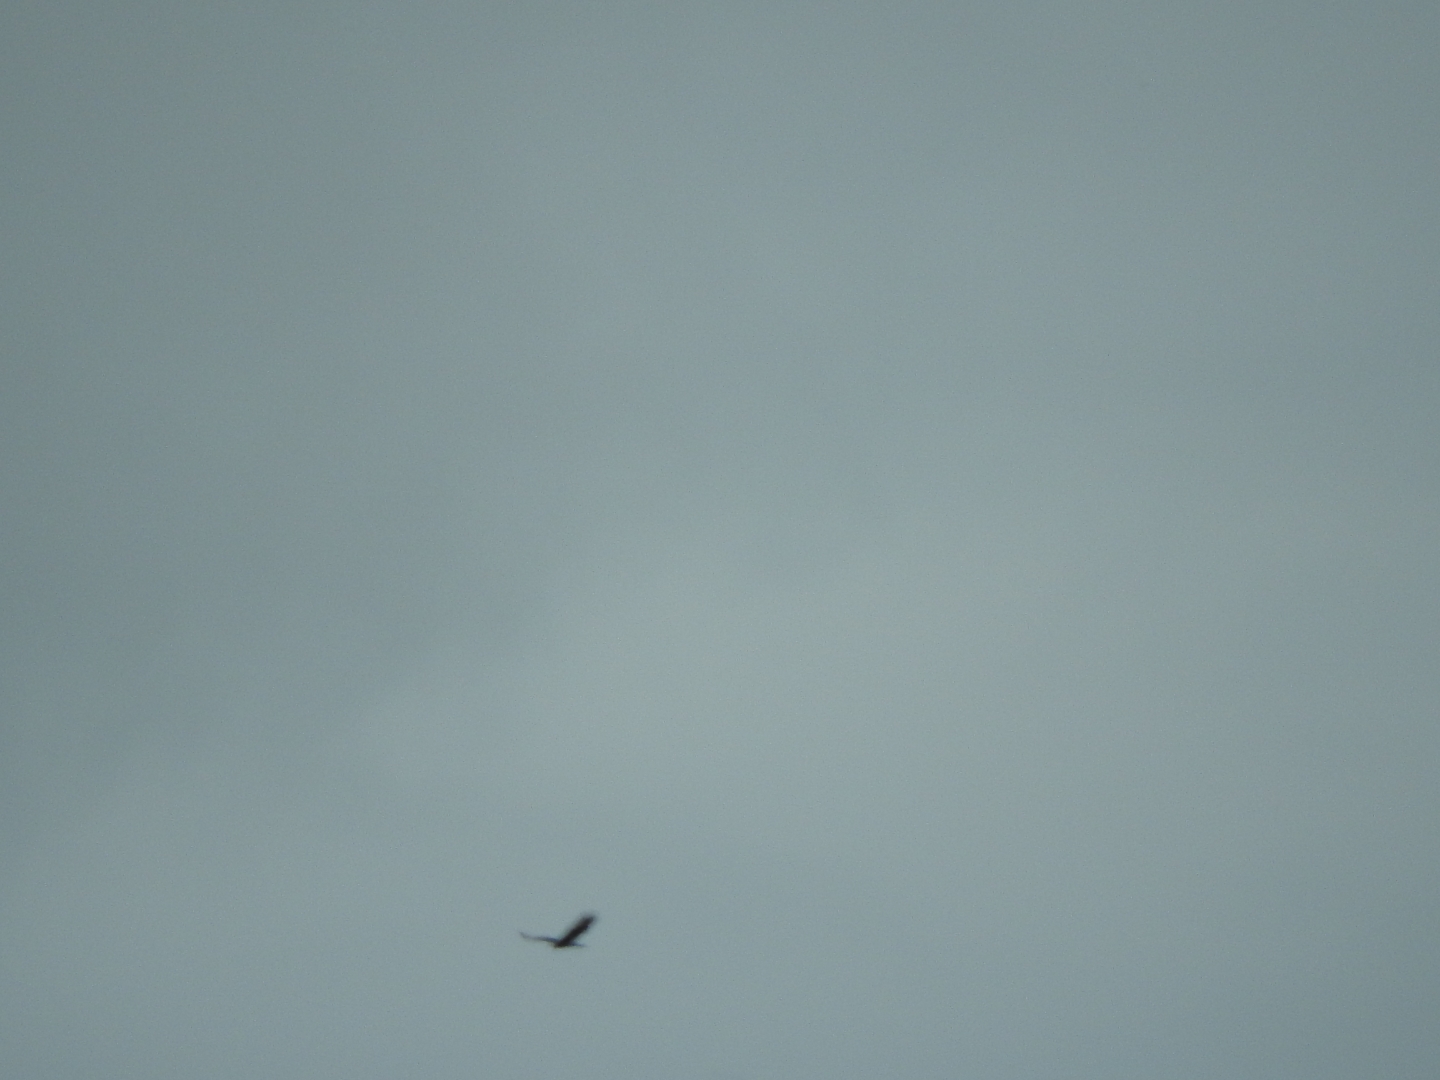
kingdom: Animalia
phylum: Chordata
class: Aves
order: Accipitriformes
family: Cathartidae
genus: Cathartes
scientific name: Cathartes aura
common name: Turkey vulture
